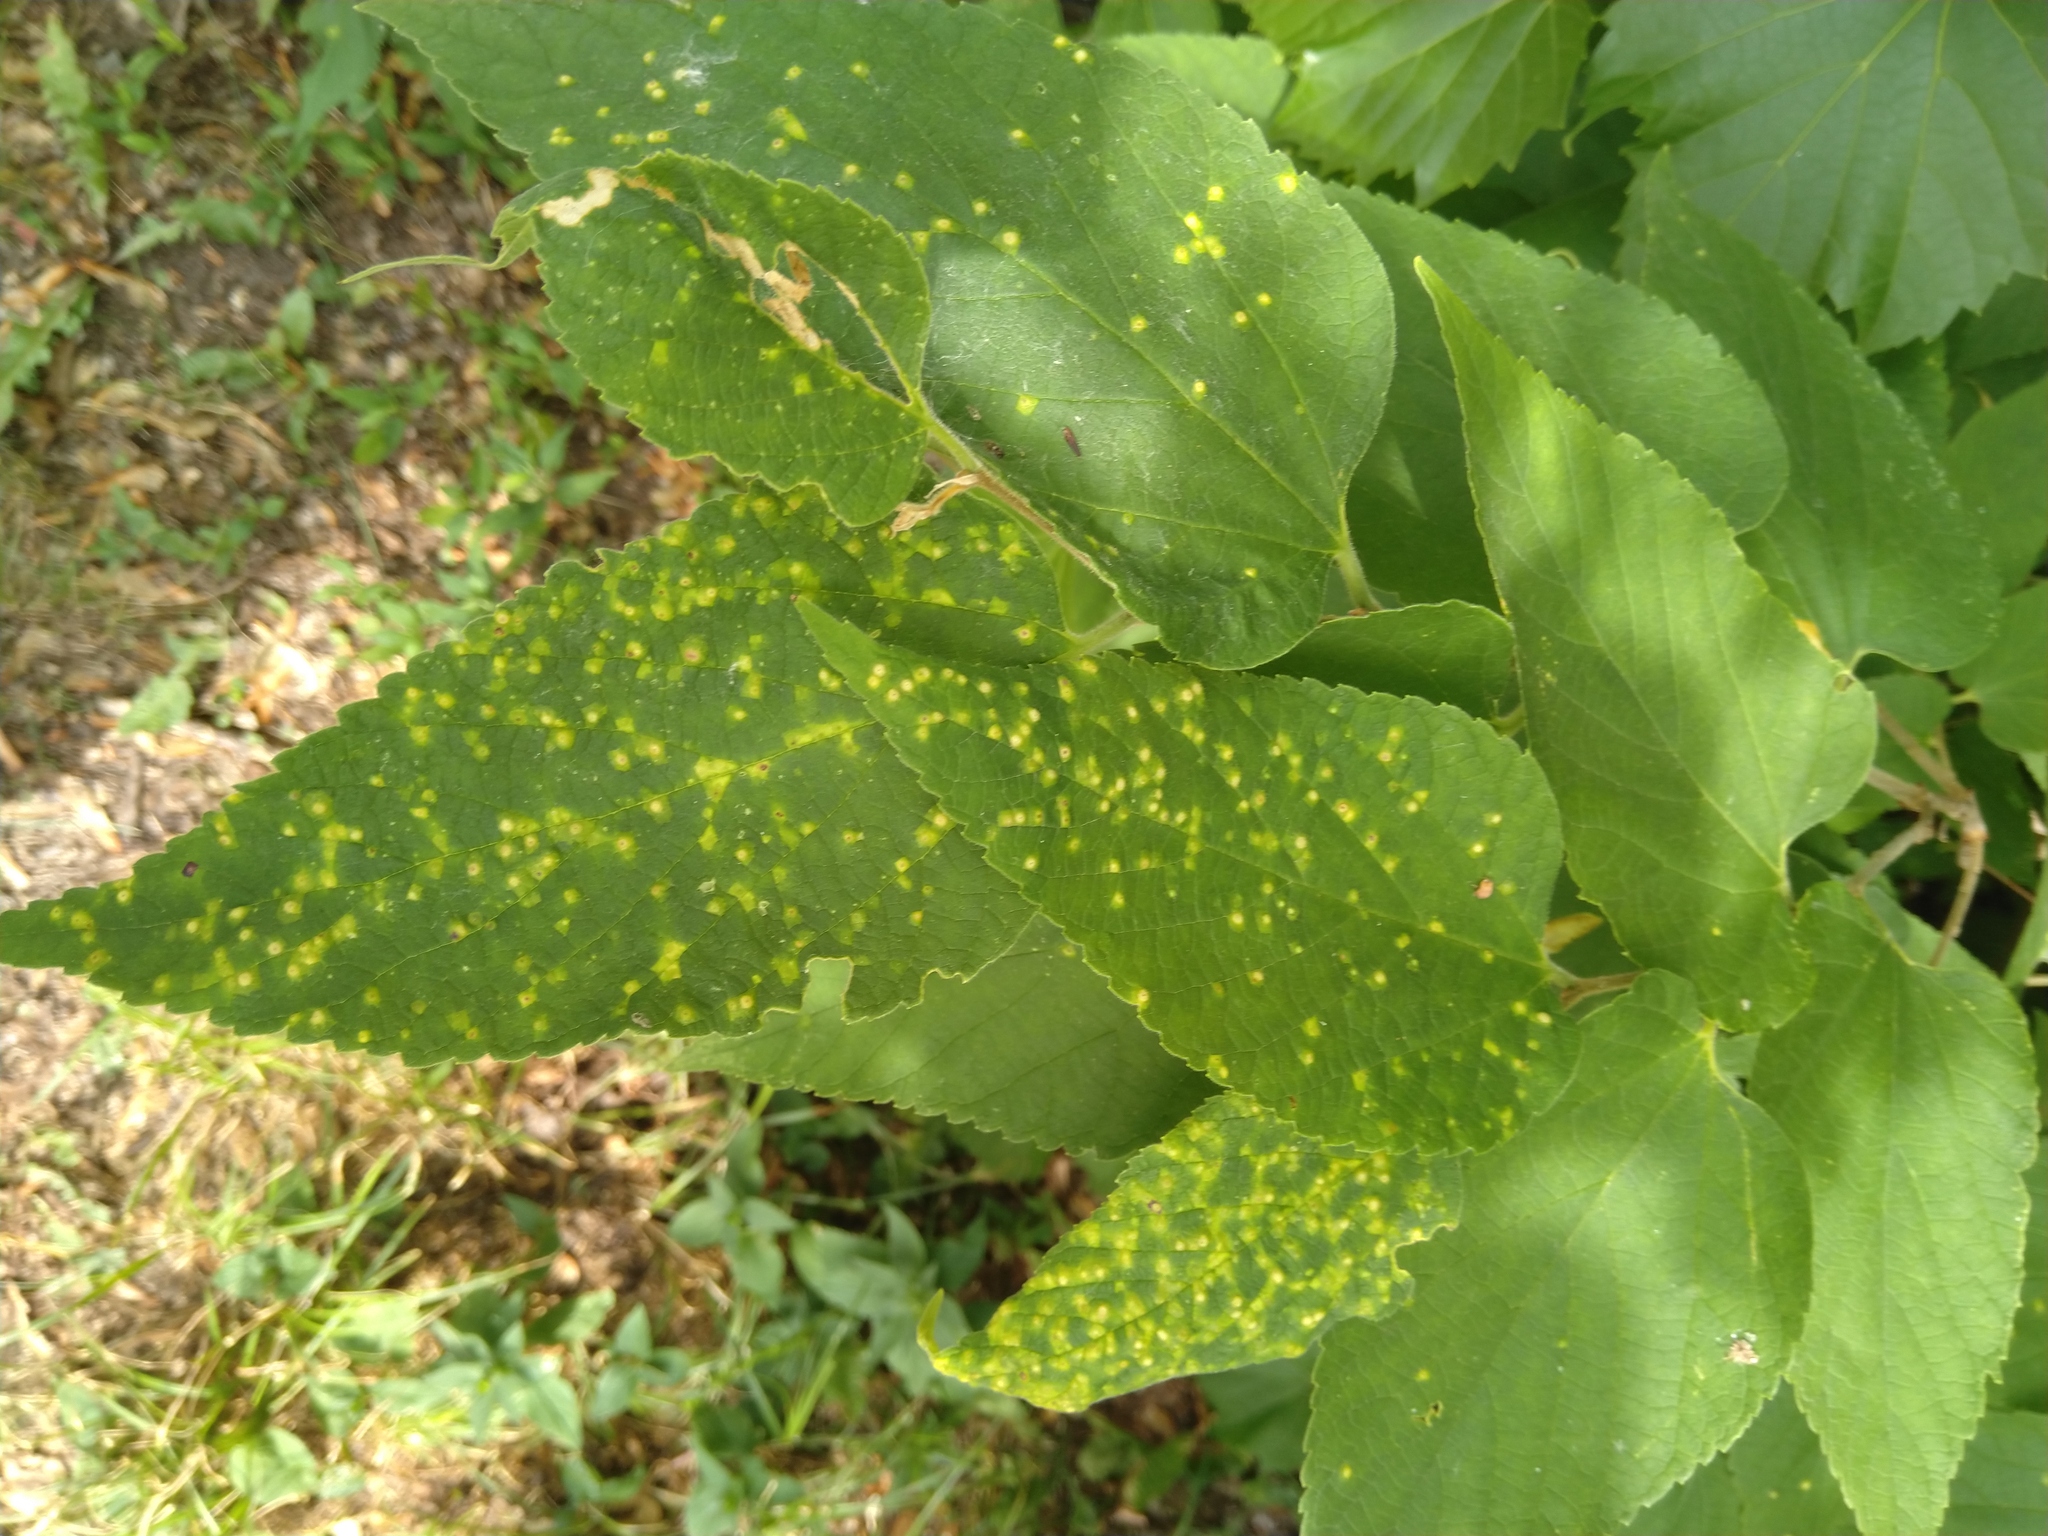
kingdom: Animalia
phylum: Arthropoda
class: Insecta
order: Hemiptera
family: Aphalaridae
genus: Pachypsylla
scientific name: Pachypsylla celtidisvesicula
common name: Hackberry blister gall psyllid
